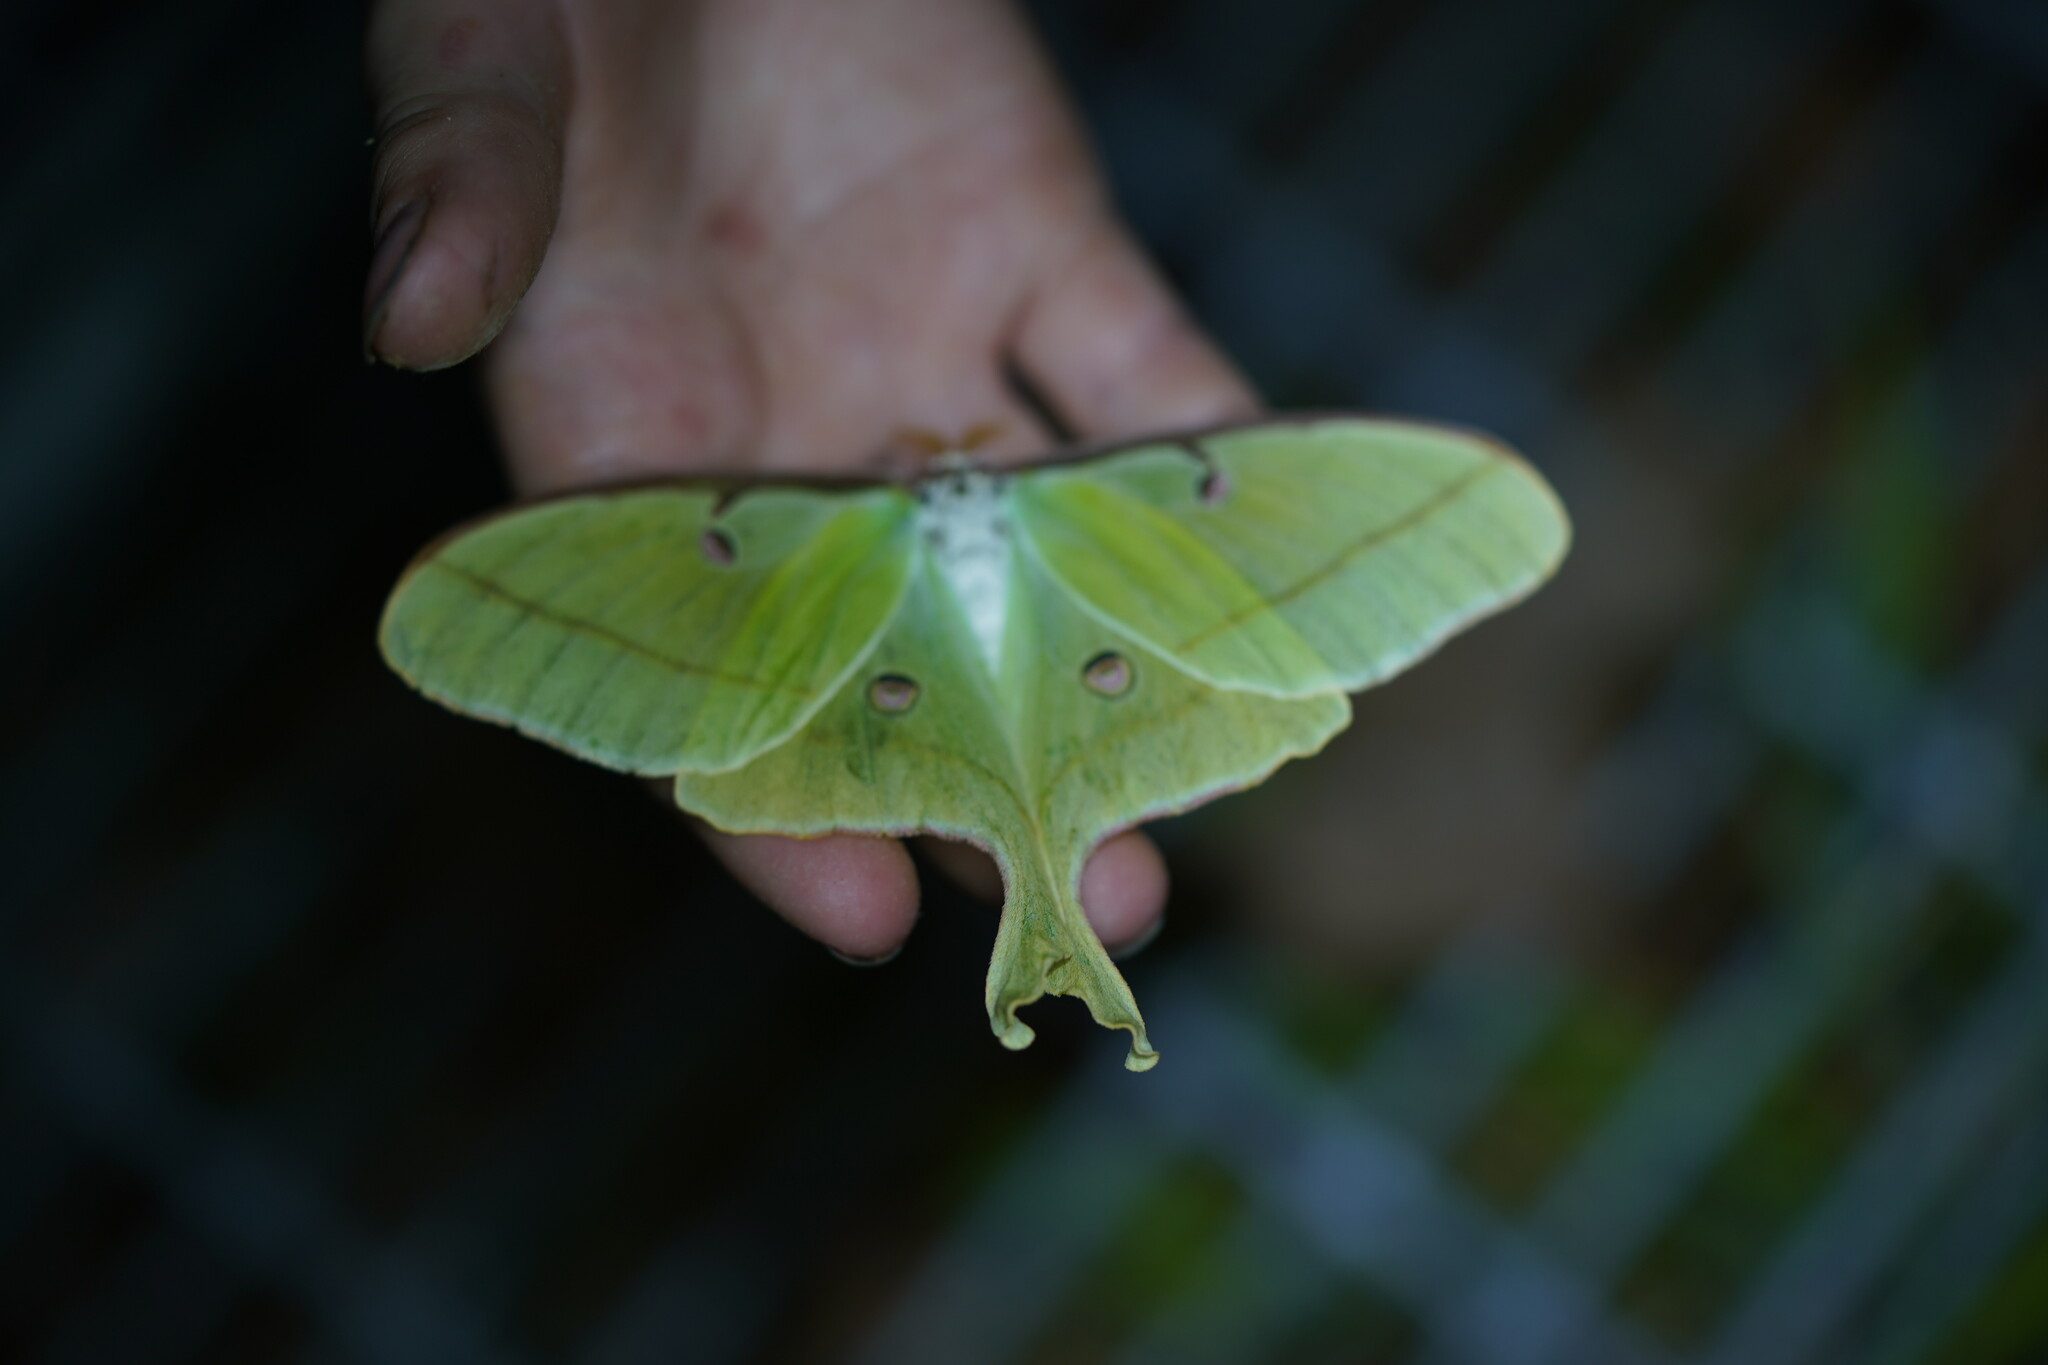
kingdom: Animalia
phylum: Arthropoda
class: Insecta
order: Lepidoptera
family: Saturniidae
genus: Actias
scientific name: Actias luna
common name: Luna moth
